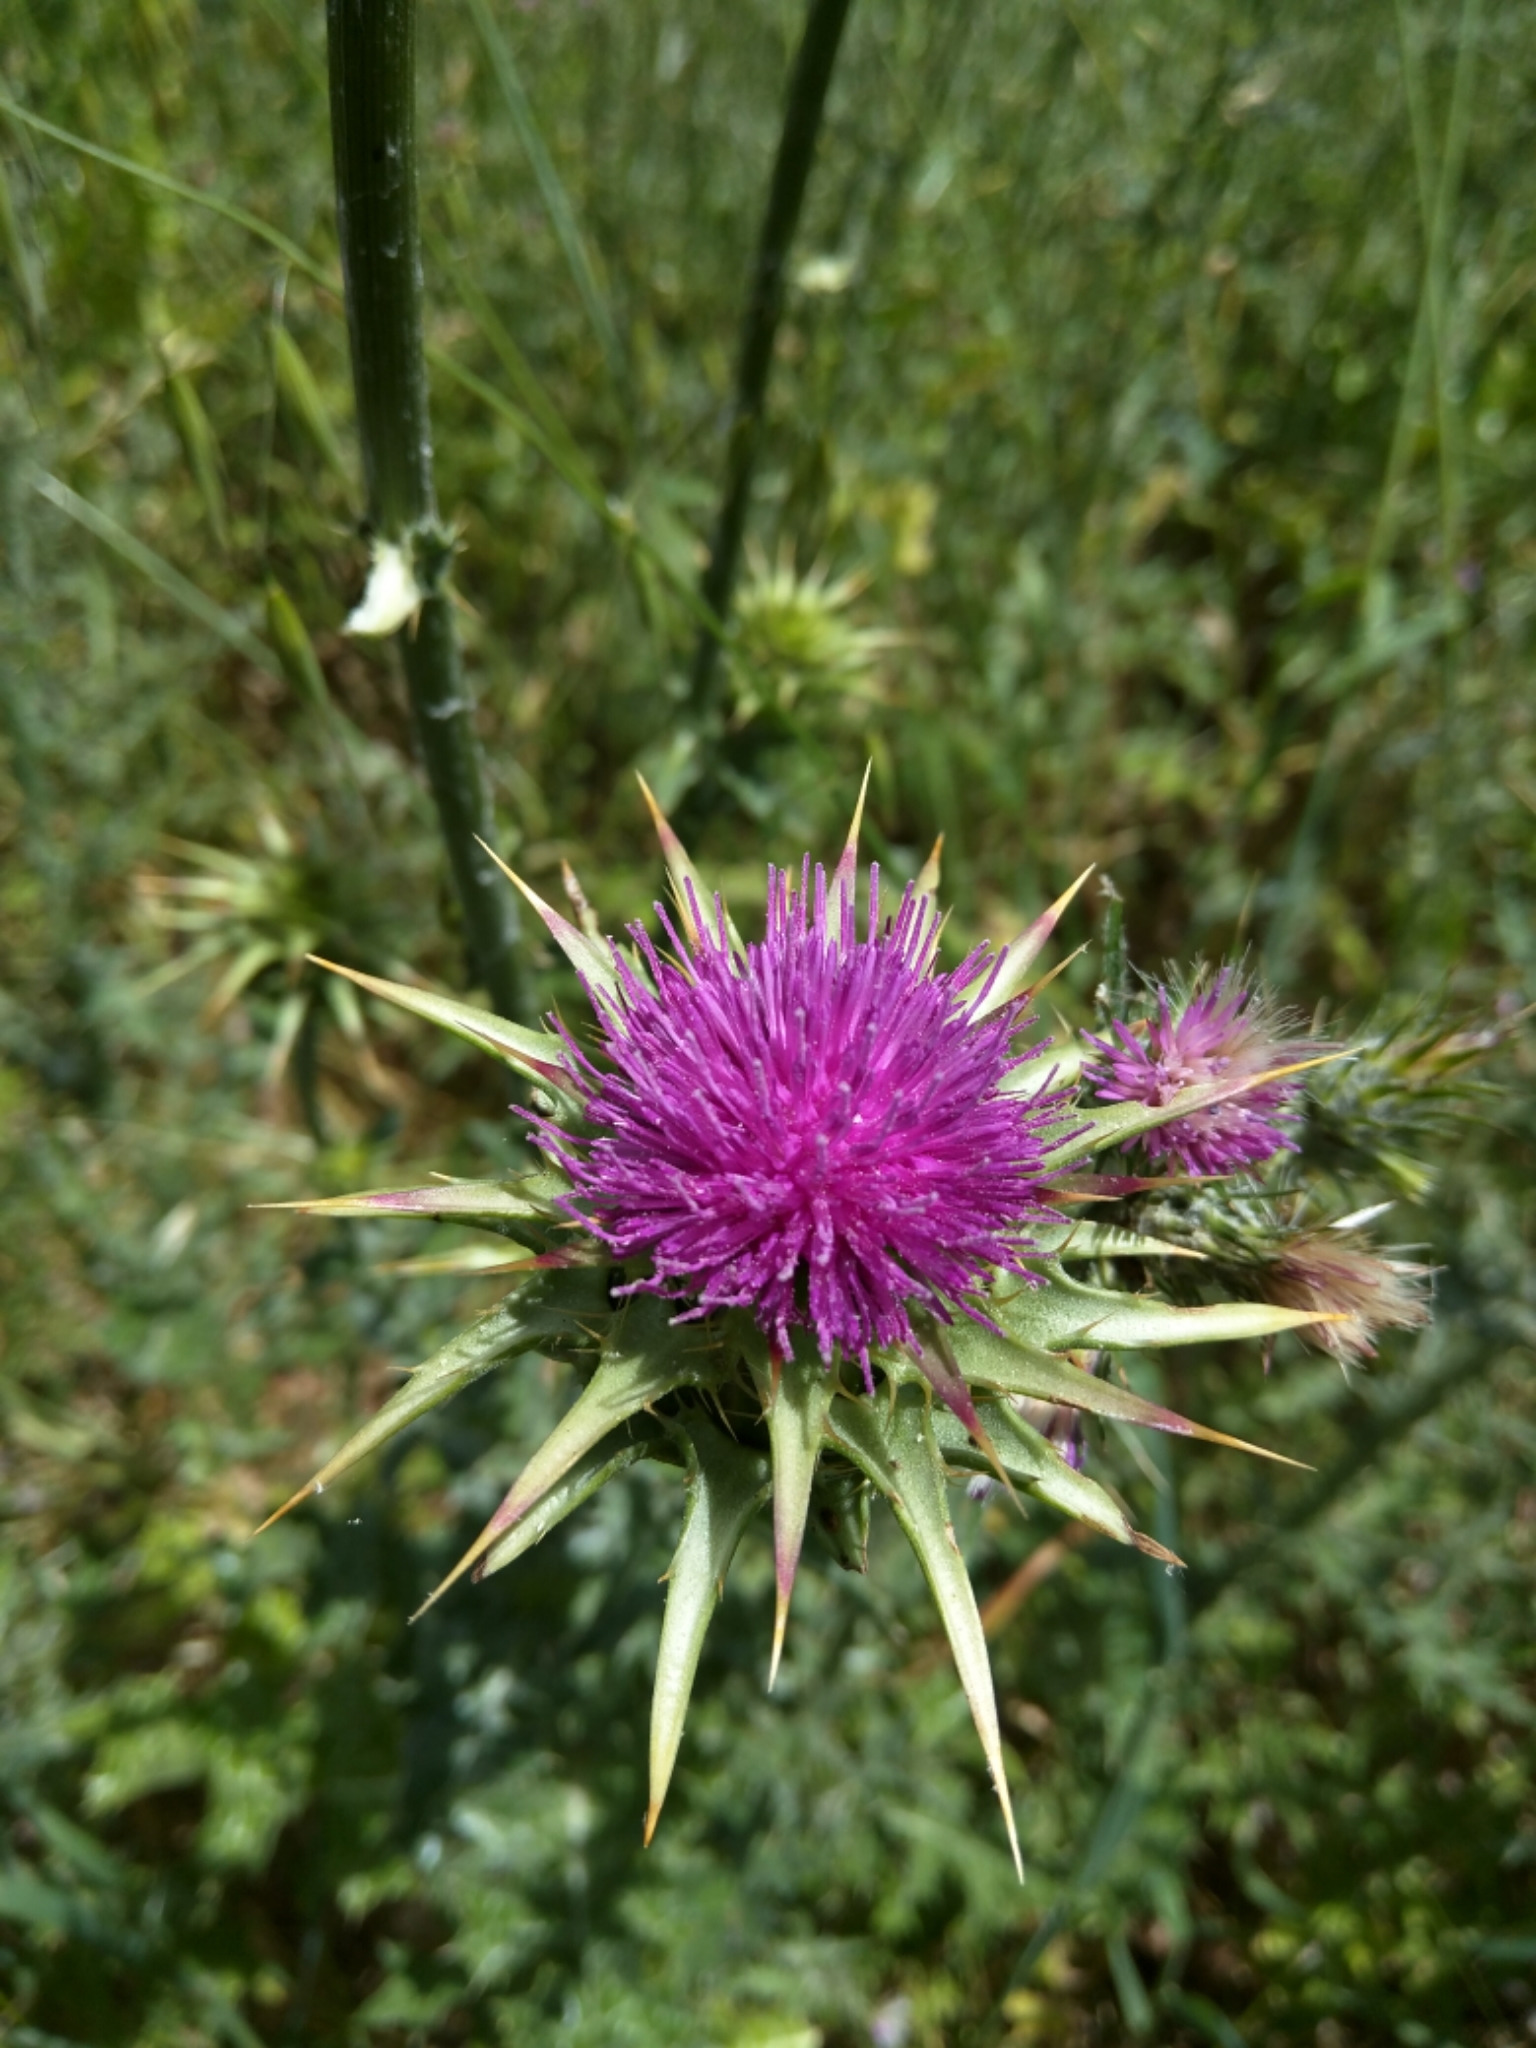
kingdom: Plantae
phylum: Tracheophyta
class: Magnoliopsida
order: Asterales
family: Asteraceae
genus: Silybum
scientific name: Silybum marianum
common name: Milk thistle
